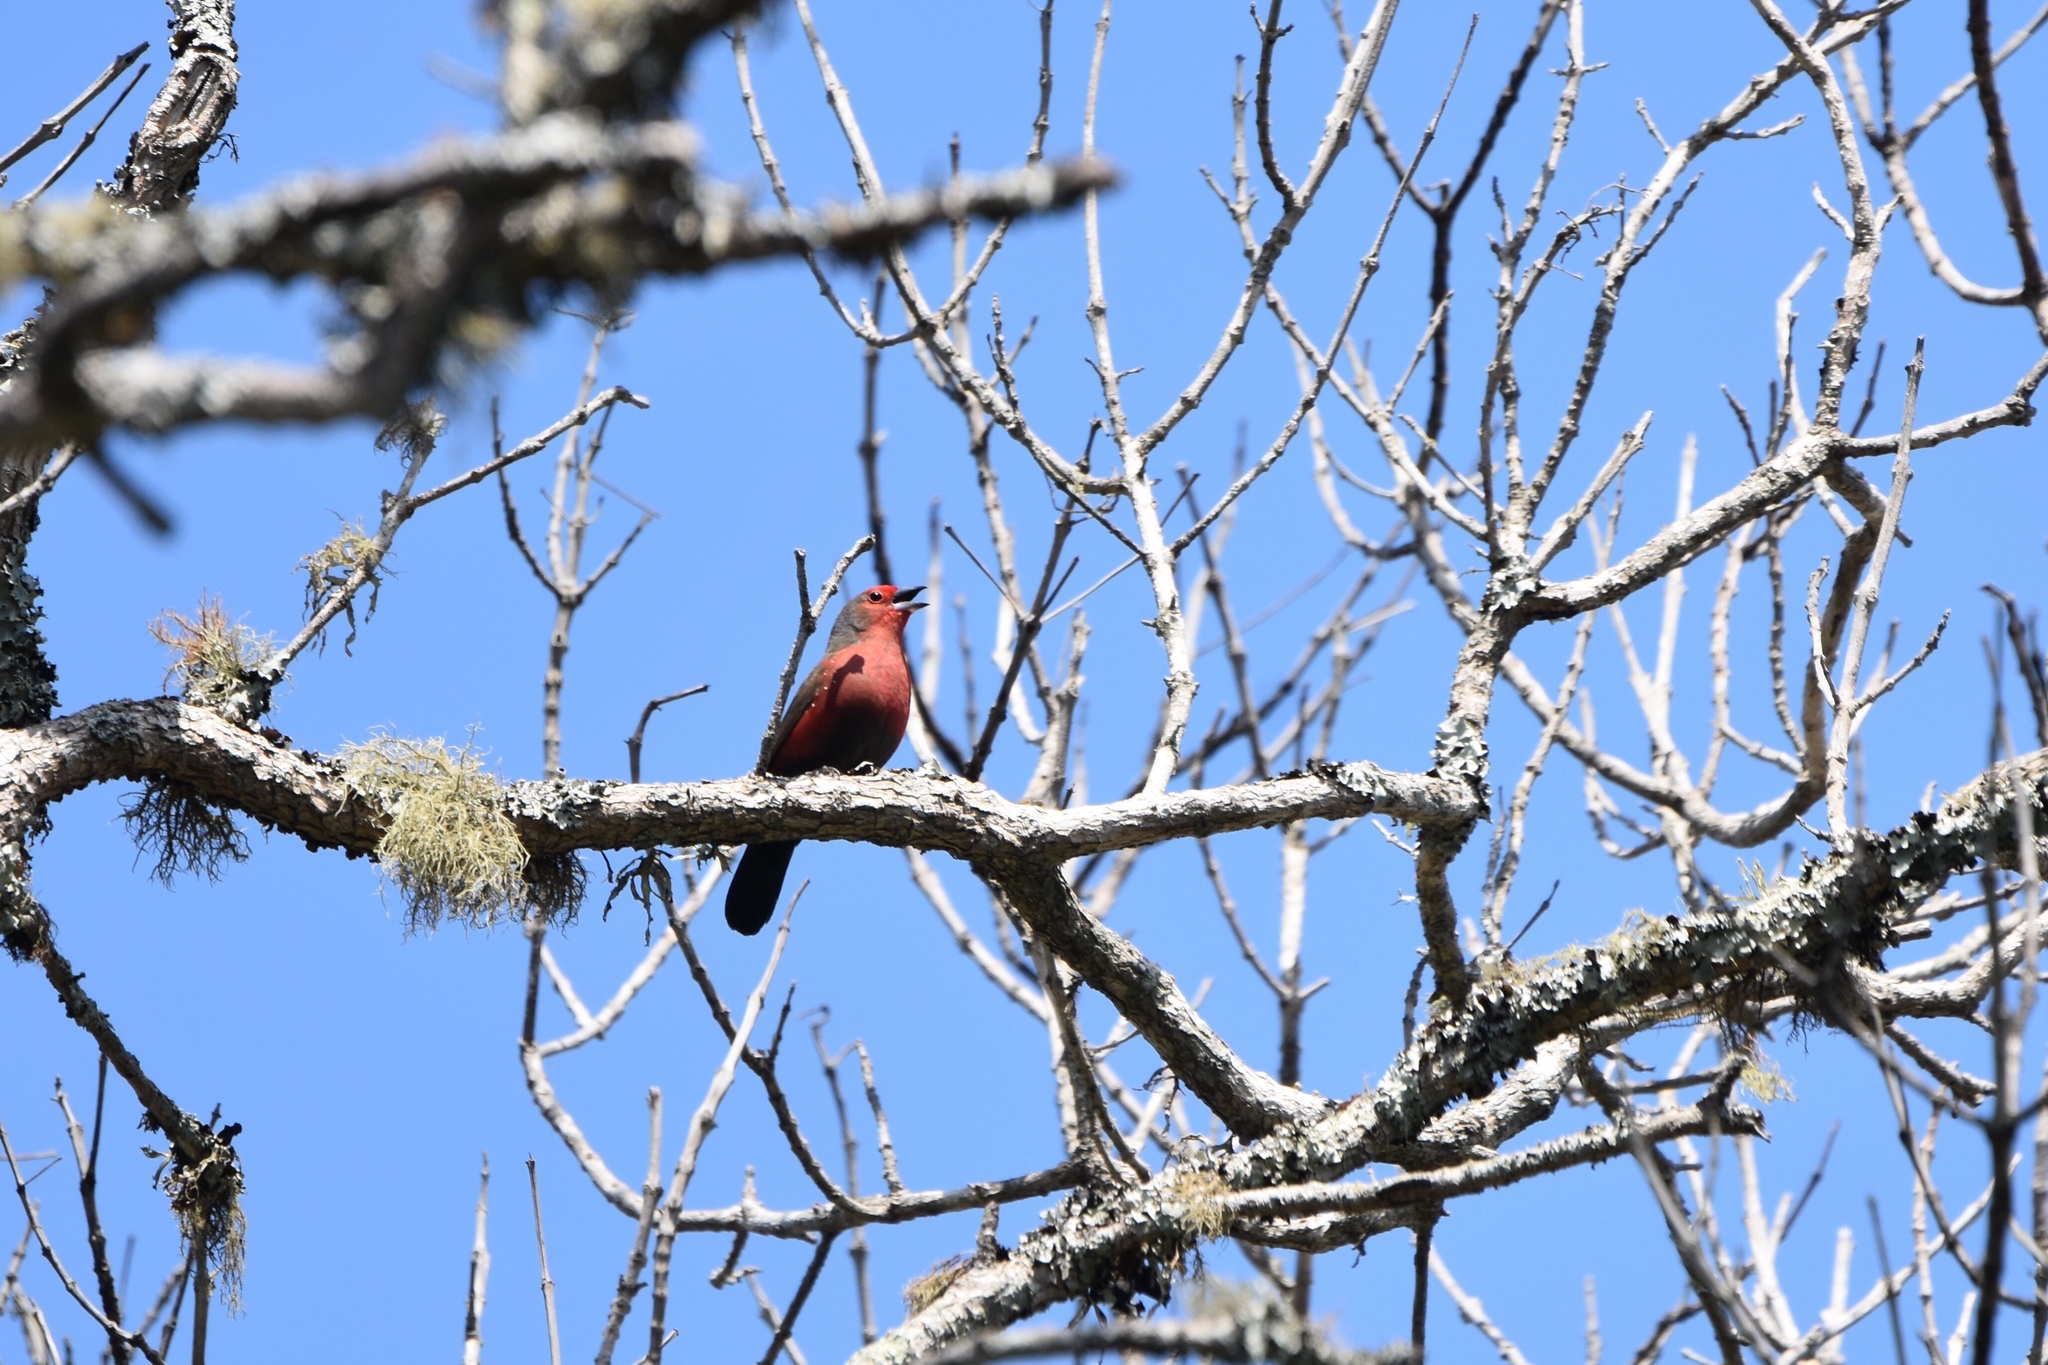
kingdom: Animalia
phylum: Chordata
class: Aves
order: Passeriformes
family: Estrildidae
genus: Lagonosticta
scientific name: Lagonosticta rubricata
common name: African firefinch
